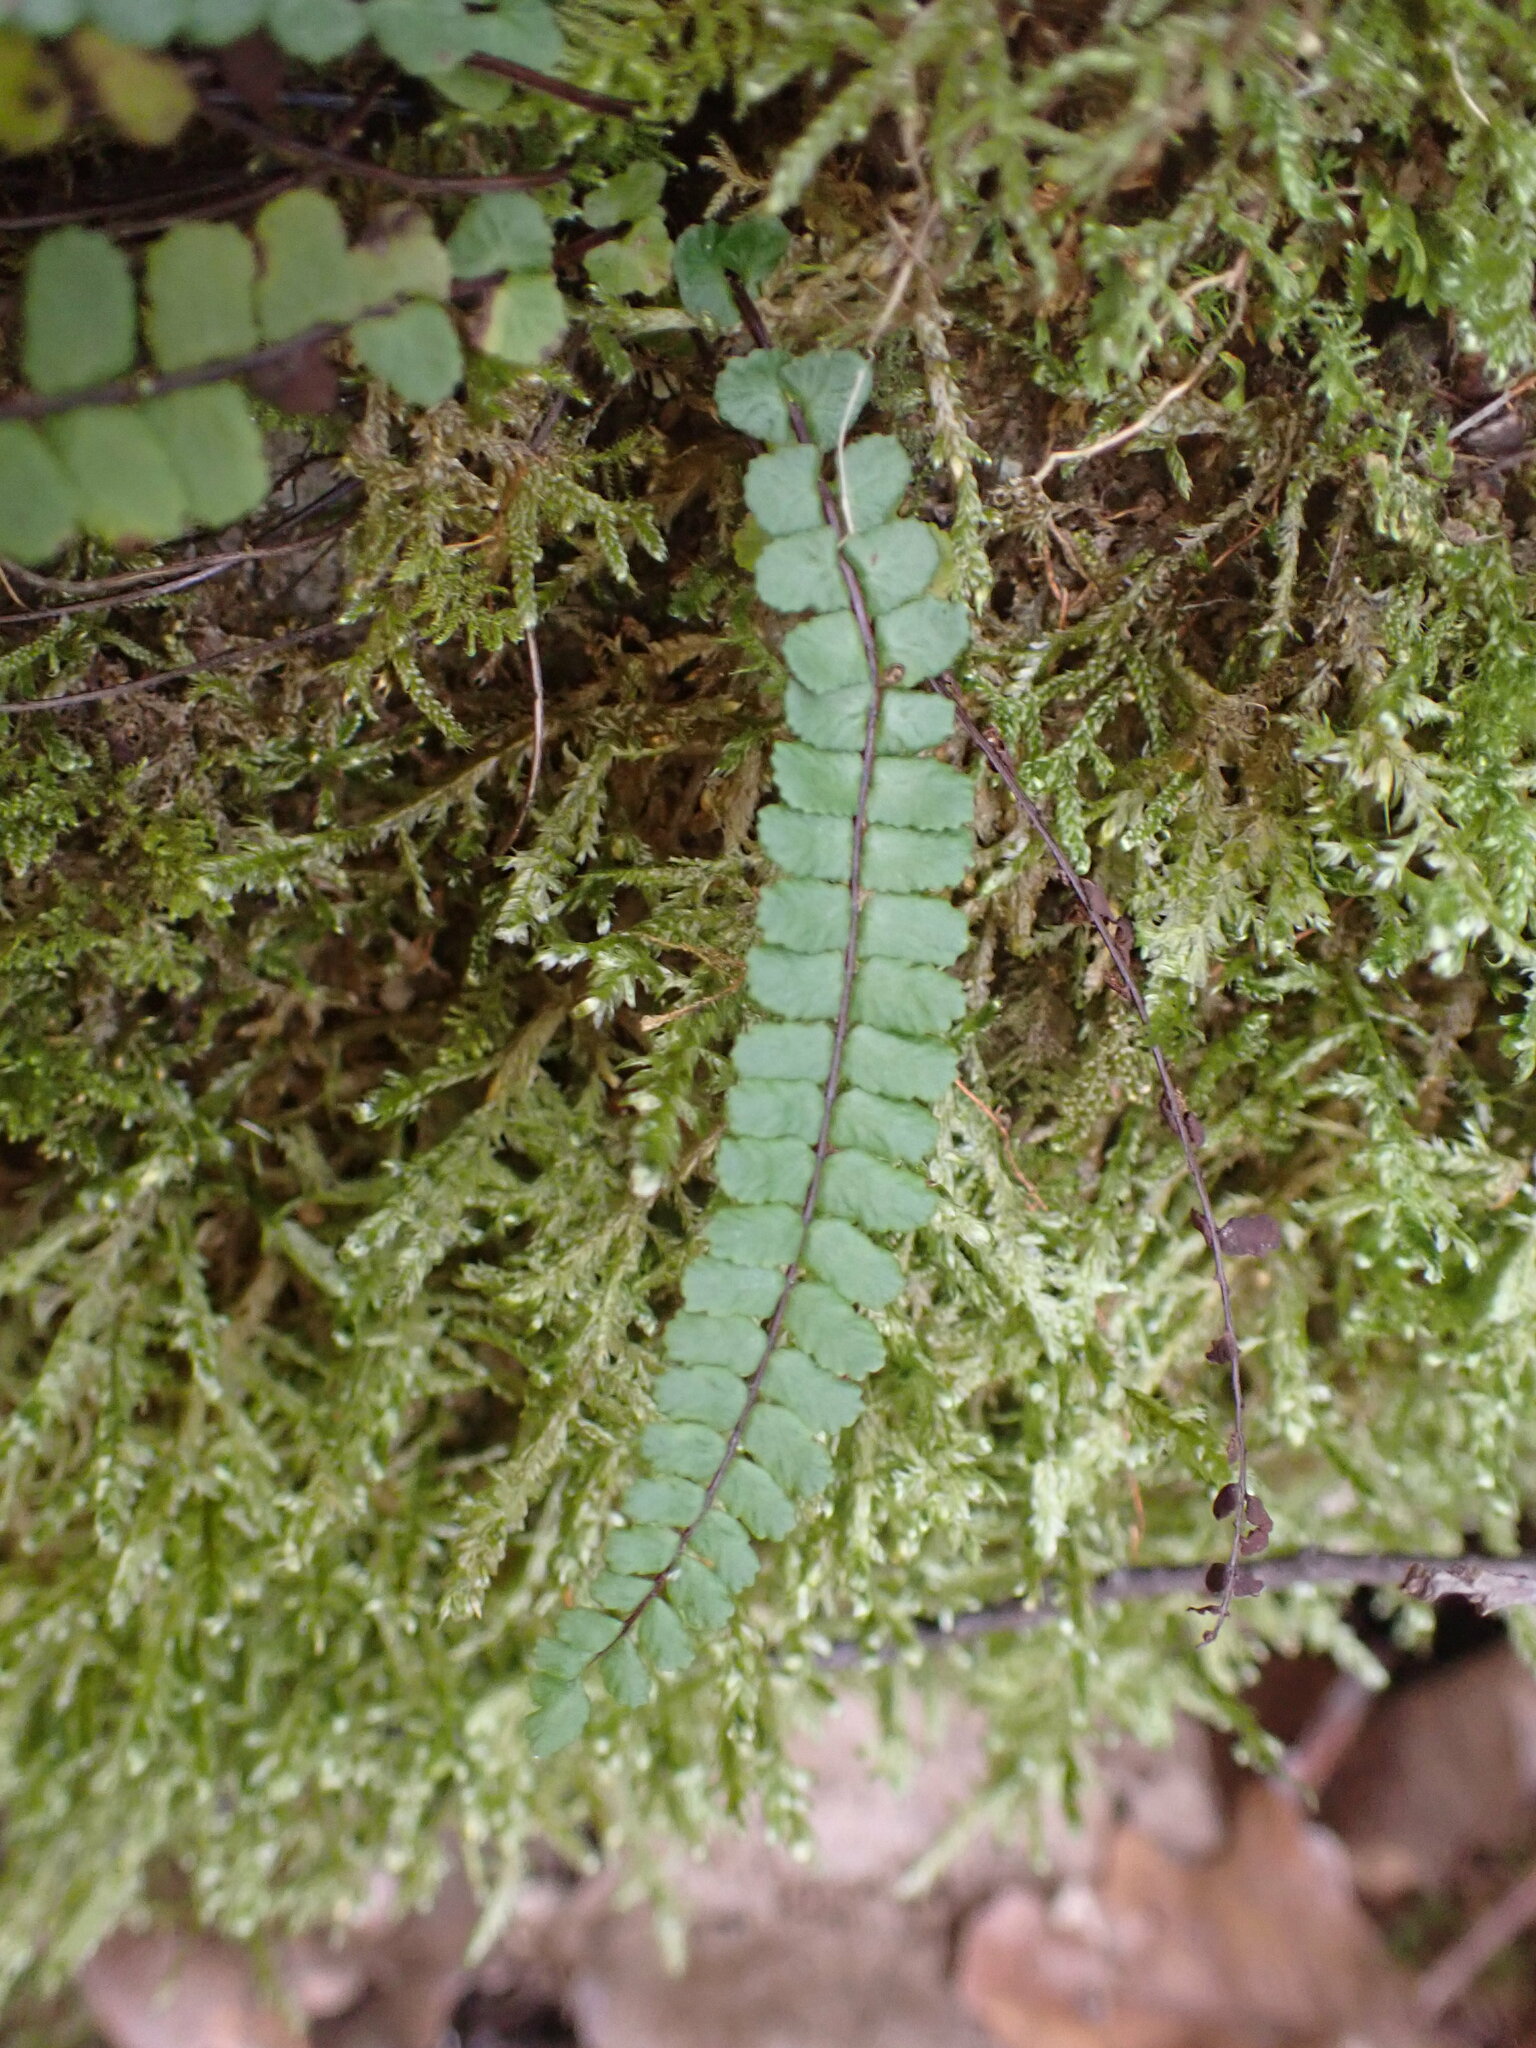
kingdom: Plantae
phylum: Tracheophyta
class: Polypodiopsida
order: Polypodiales
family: Aspleniaceae
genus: Asplenium
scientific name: Asplenium trichomanes
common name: Maidenhair spleenwort
